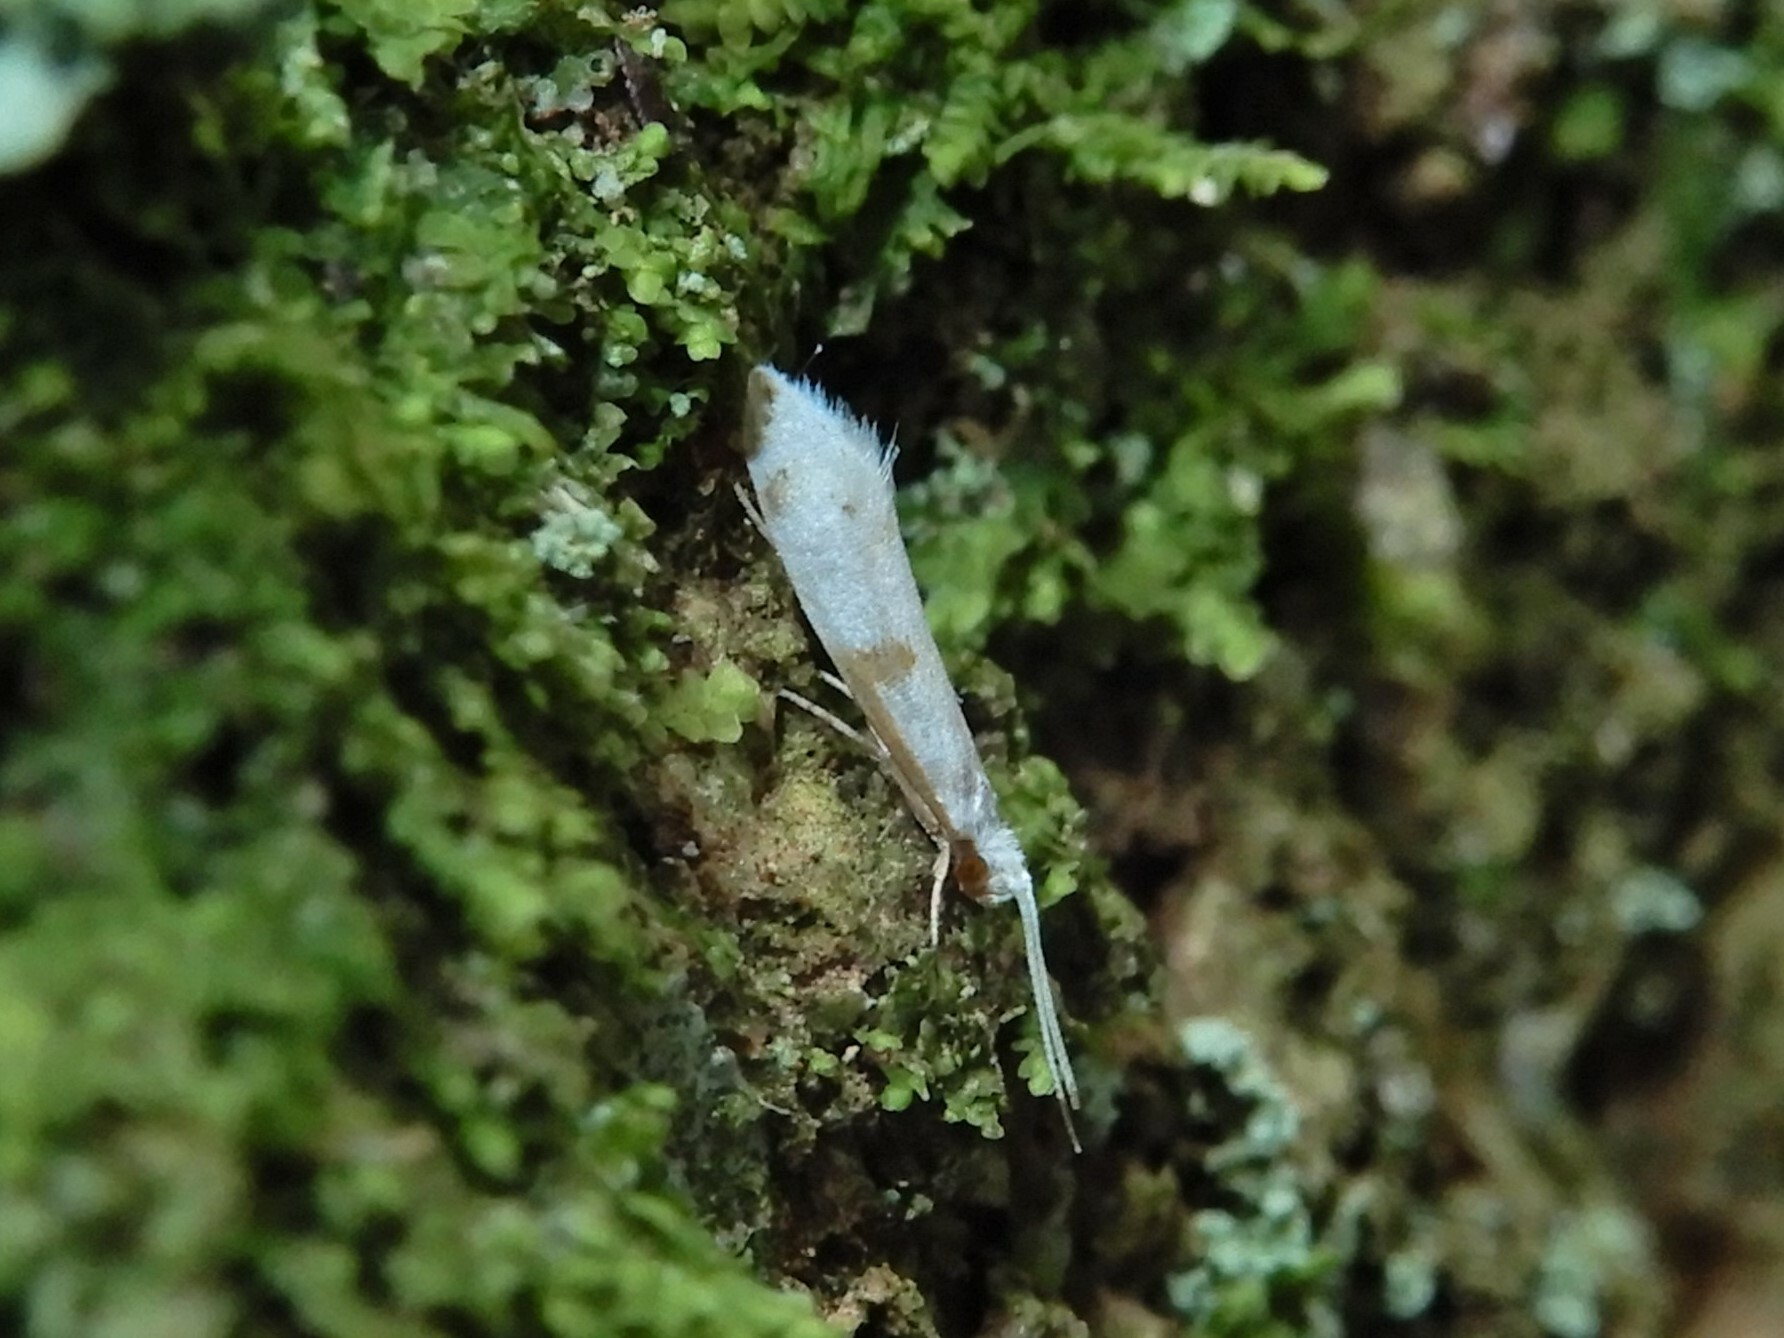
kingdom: Animalia
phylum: Arthropoda
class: Insecta
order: Lepidoptera
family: Tineidae
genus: Sagephora
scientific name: Sagephora felix
